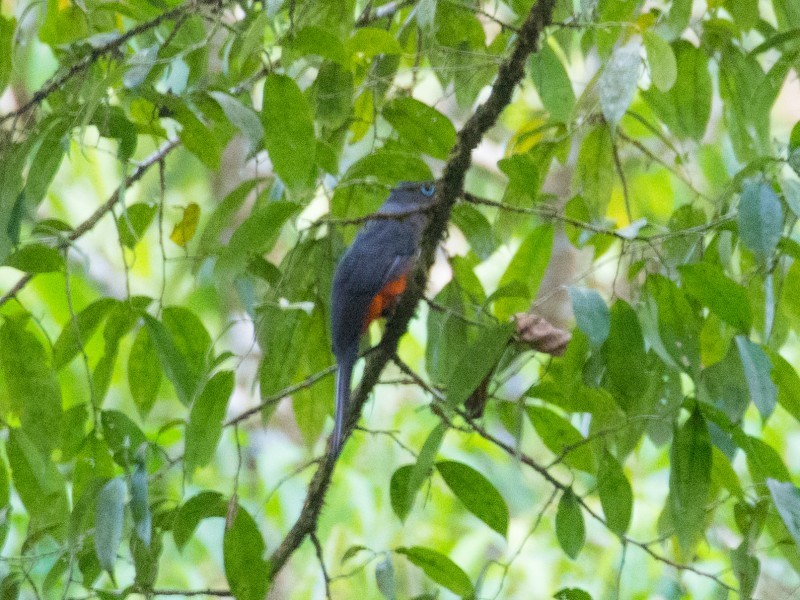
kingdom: Animalia
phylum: Chordata
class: Aves
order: Trogoniformes
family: Trogonidae
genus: Trogon
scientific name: Trogon bairdii
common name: Baird's trogon
